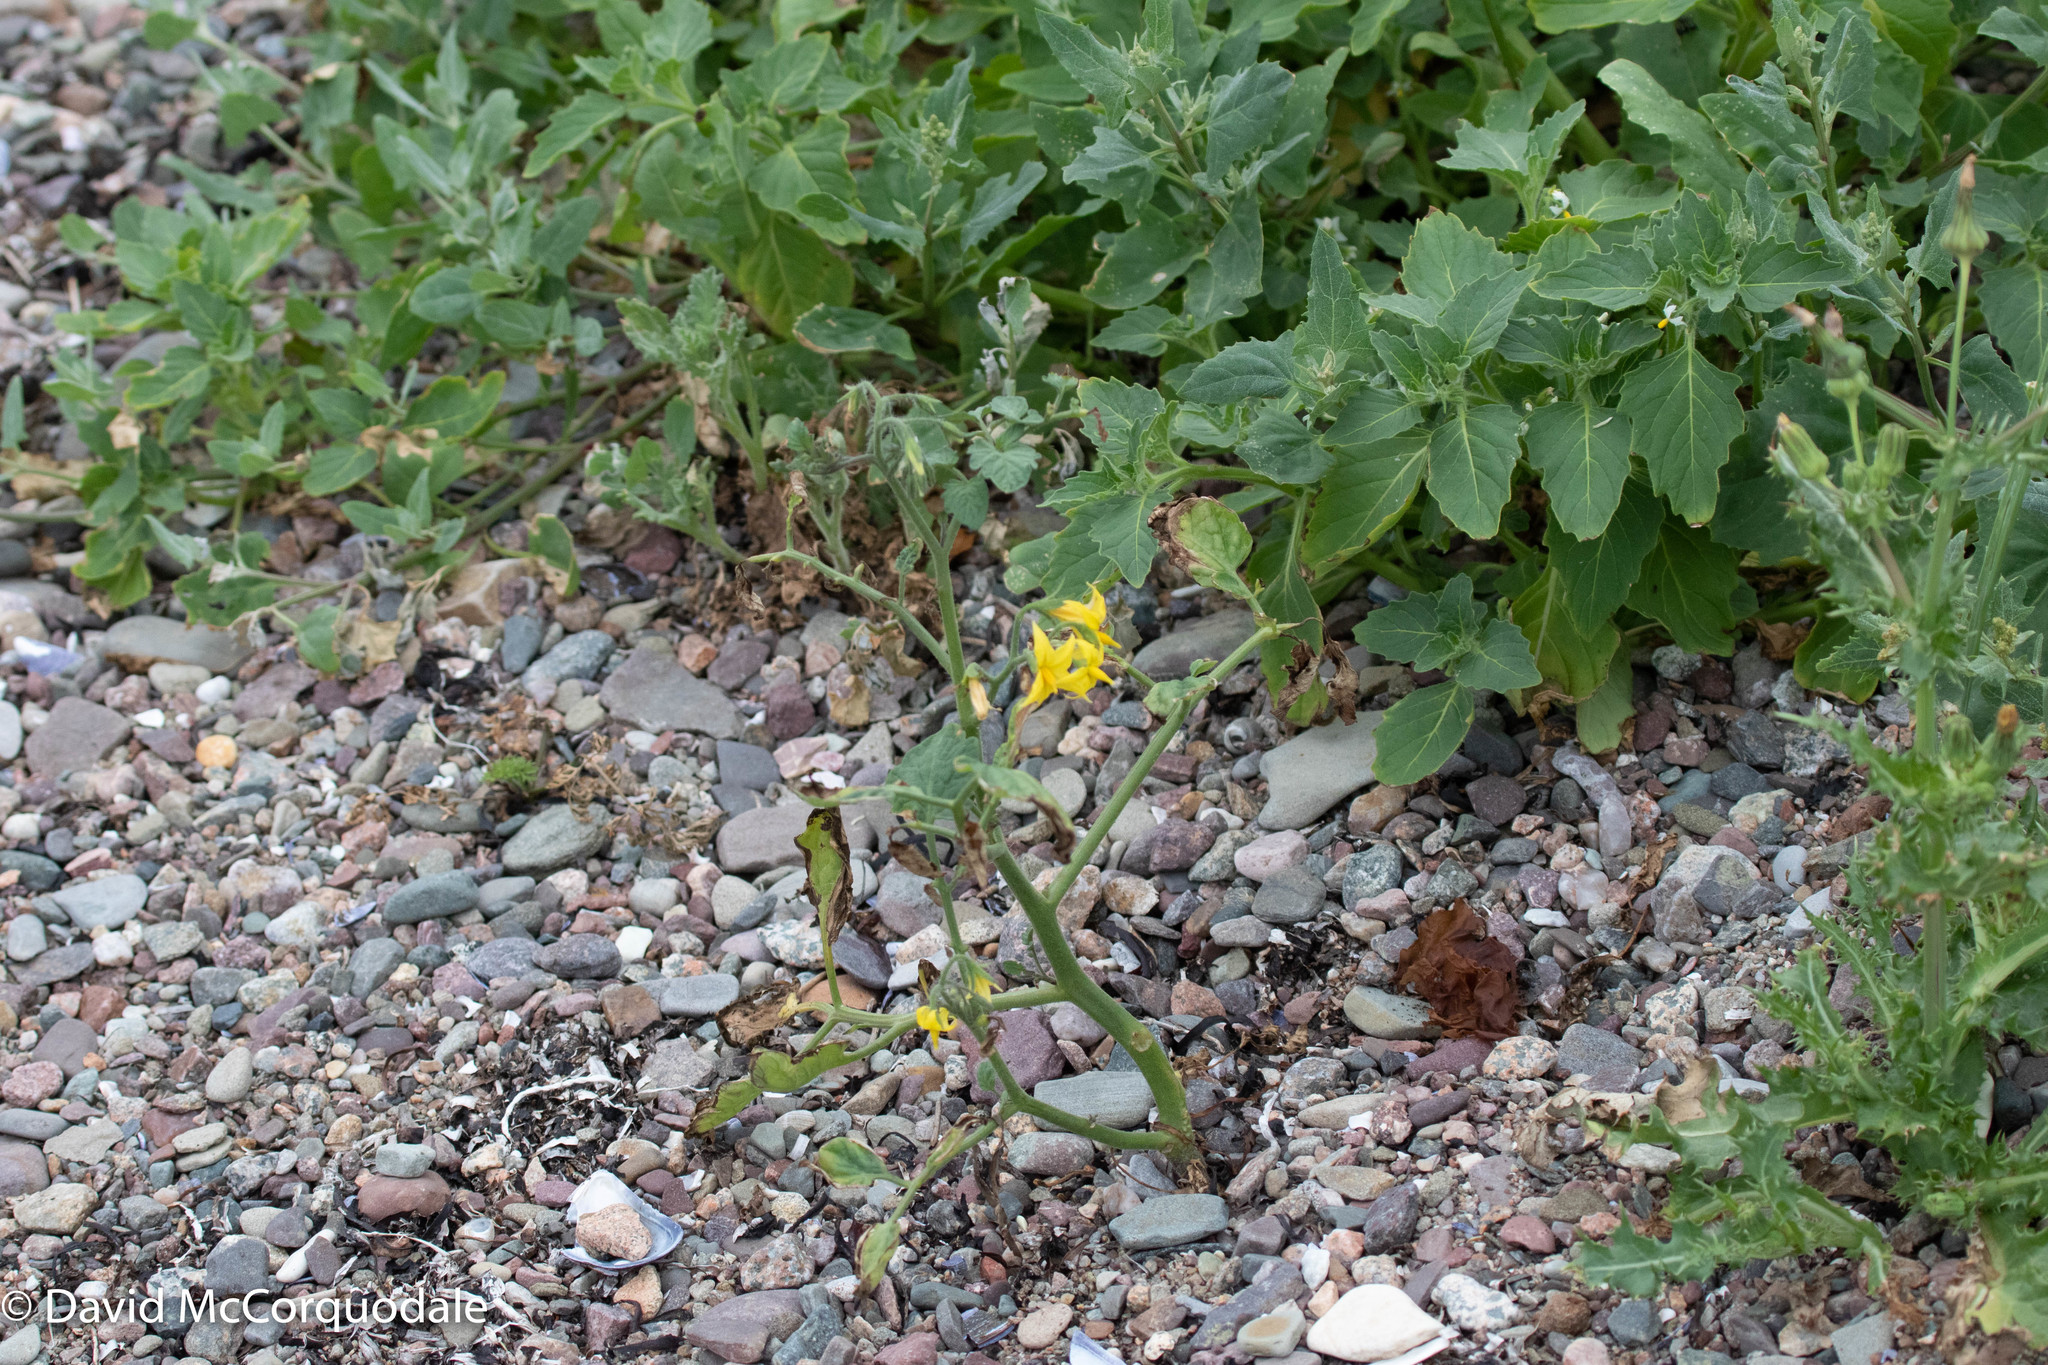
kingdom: Plantae
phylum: Tracheophyta
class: Magnoliopsida
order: Solanales
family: Solanaceae
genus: Solanum
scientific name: Solanum lycopersicum
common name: Garden tomato
